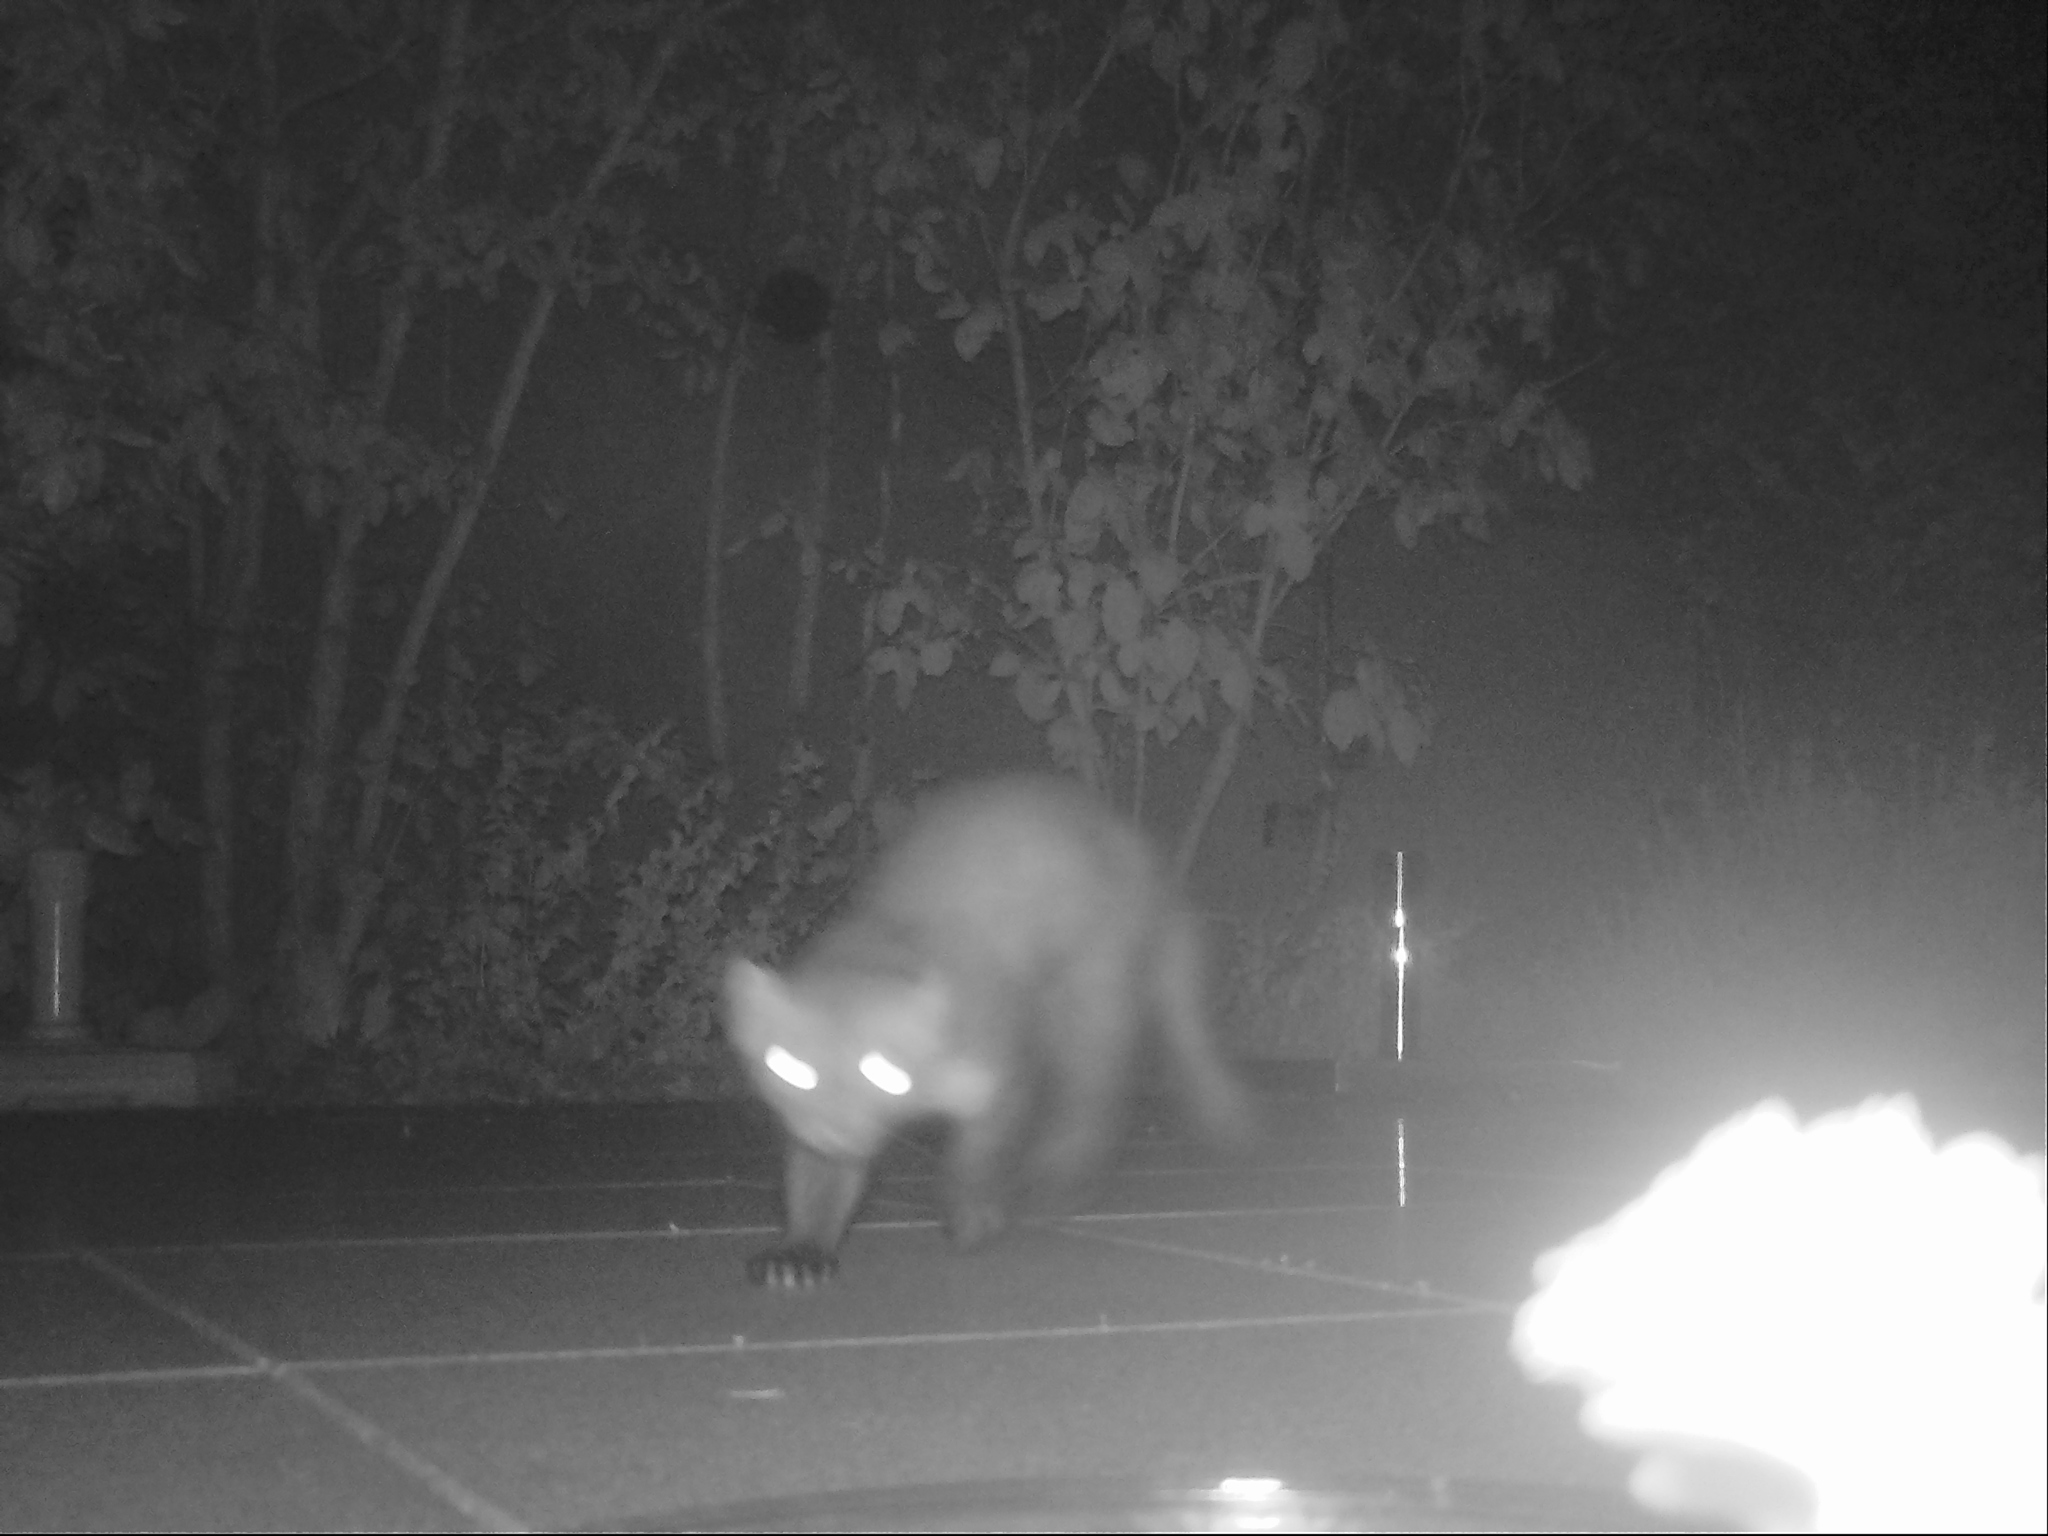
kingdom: Animalia
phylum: Chordata
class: Mammalia
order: Carnivora
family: Mustelidae
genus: Martes
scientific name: Martes foina
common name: Beech marten
